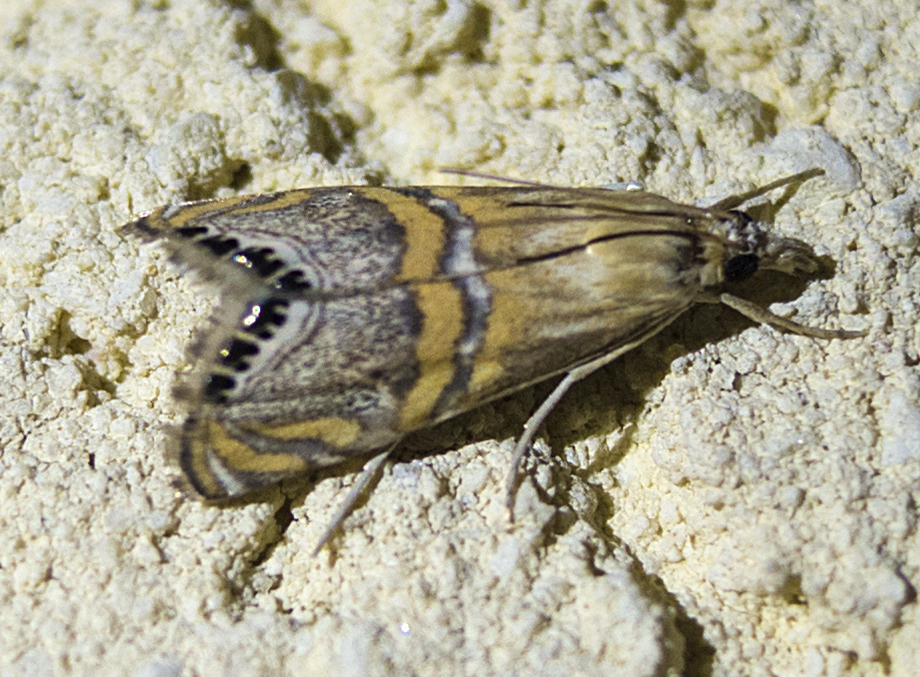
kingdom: Animalia
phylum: Arthropoda
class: Insecta
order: Lepidoptera
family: Crambidae
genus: Euchromius
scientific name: Euchromius bella
